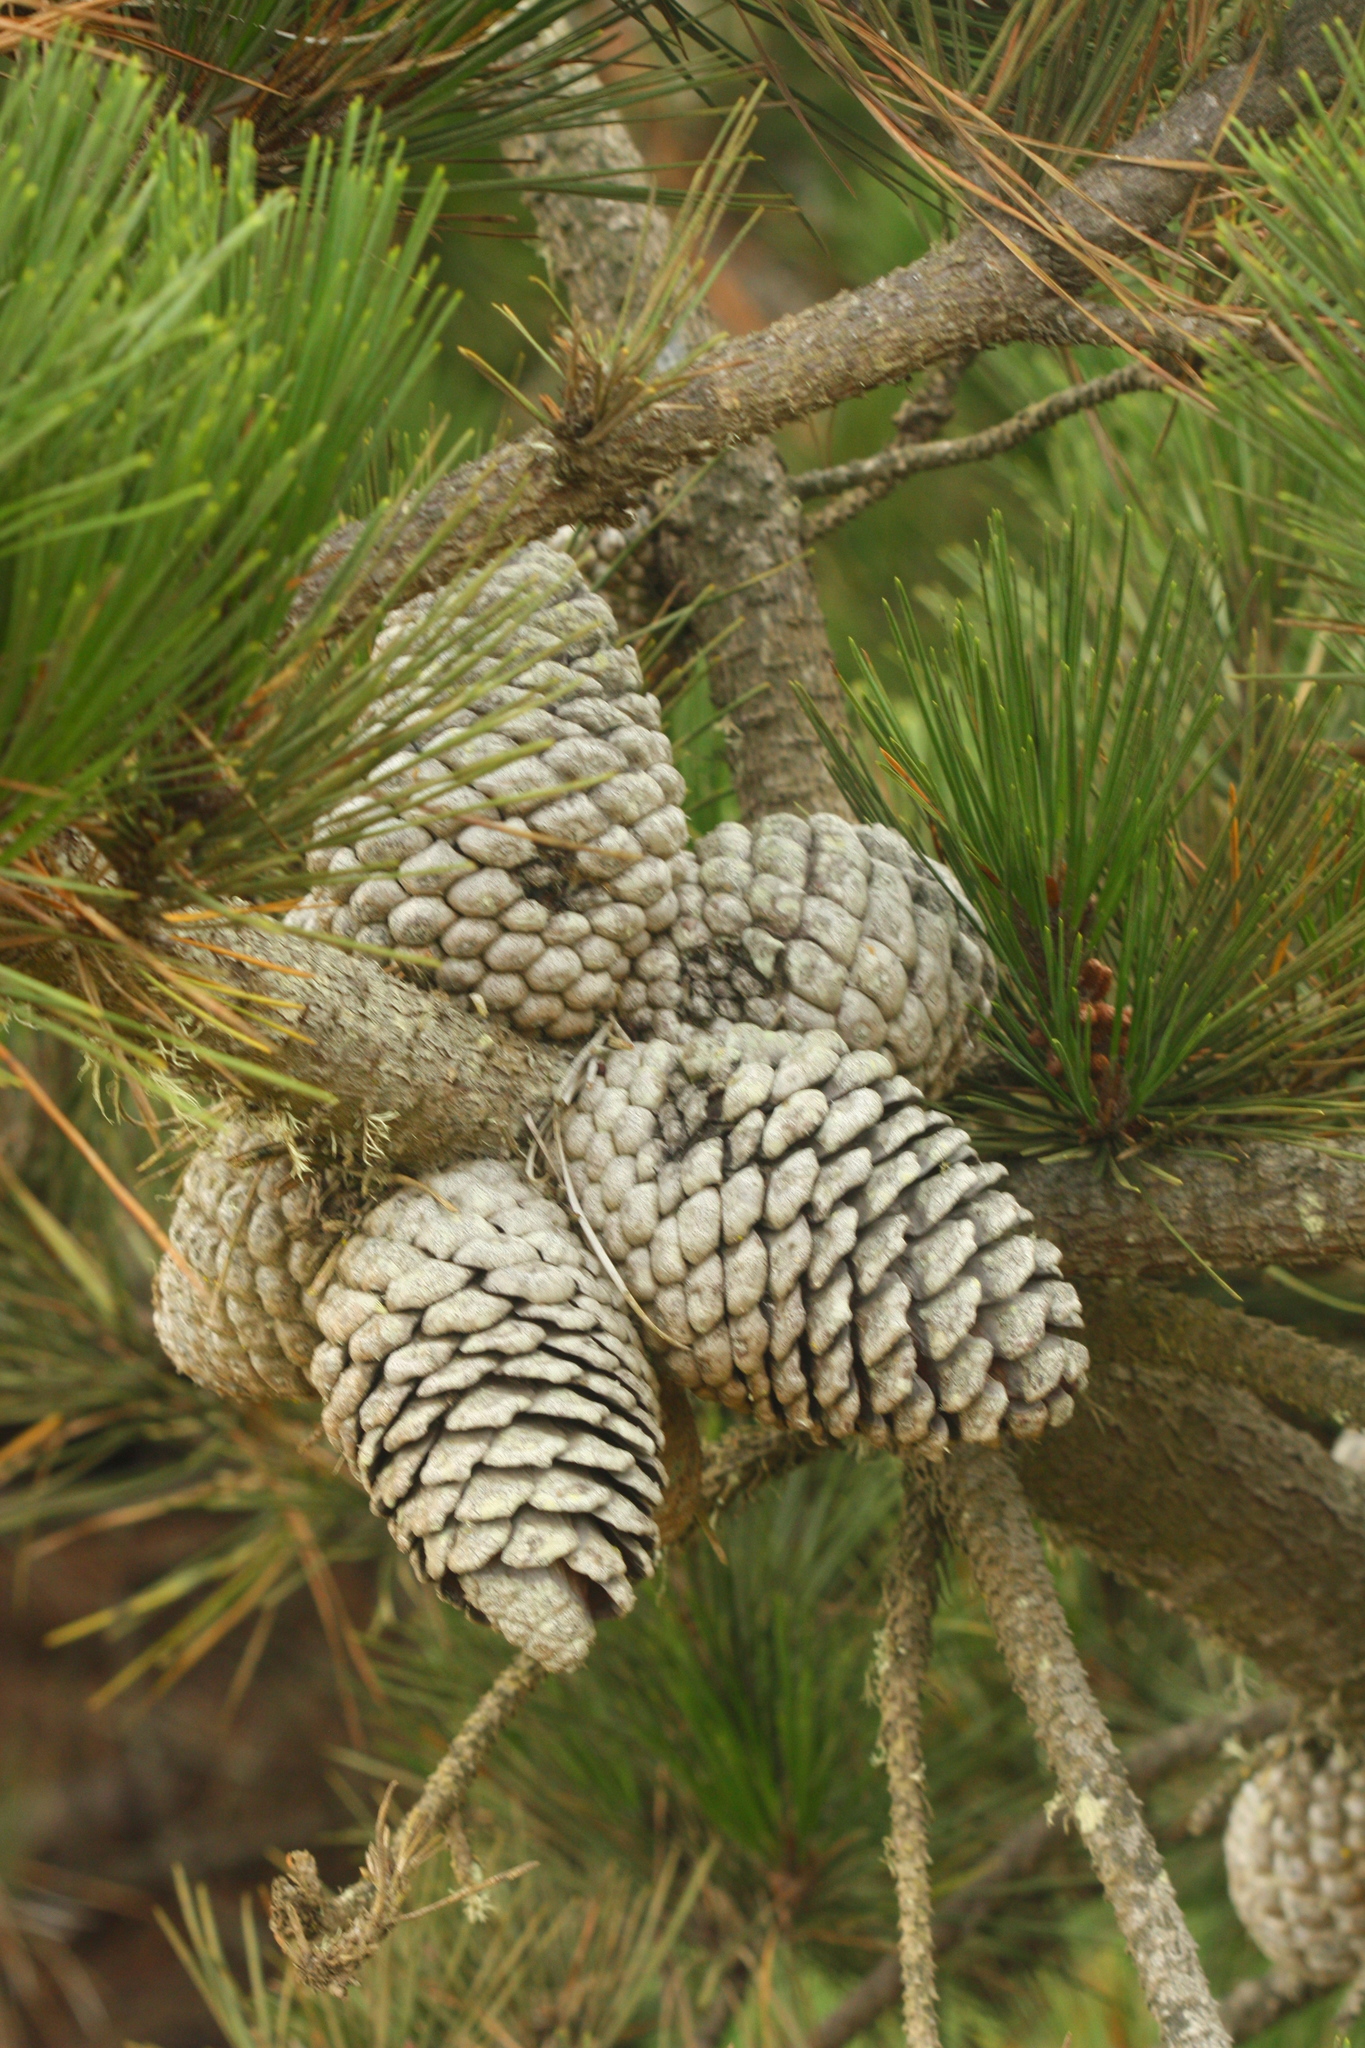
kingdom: Plantae
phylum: Tracheophyta
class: Pinopsida
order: Pinales
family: Pinaceae
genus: Pinus
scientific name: Pinus radiata
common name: Monterey pine
